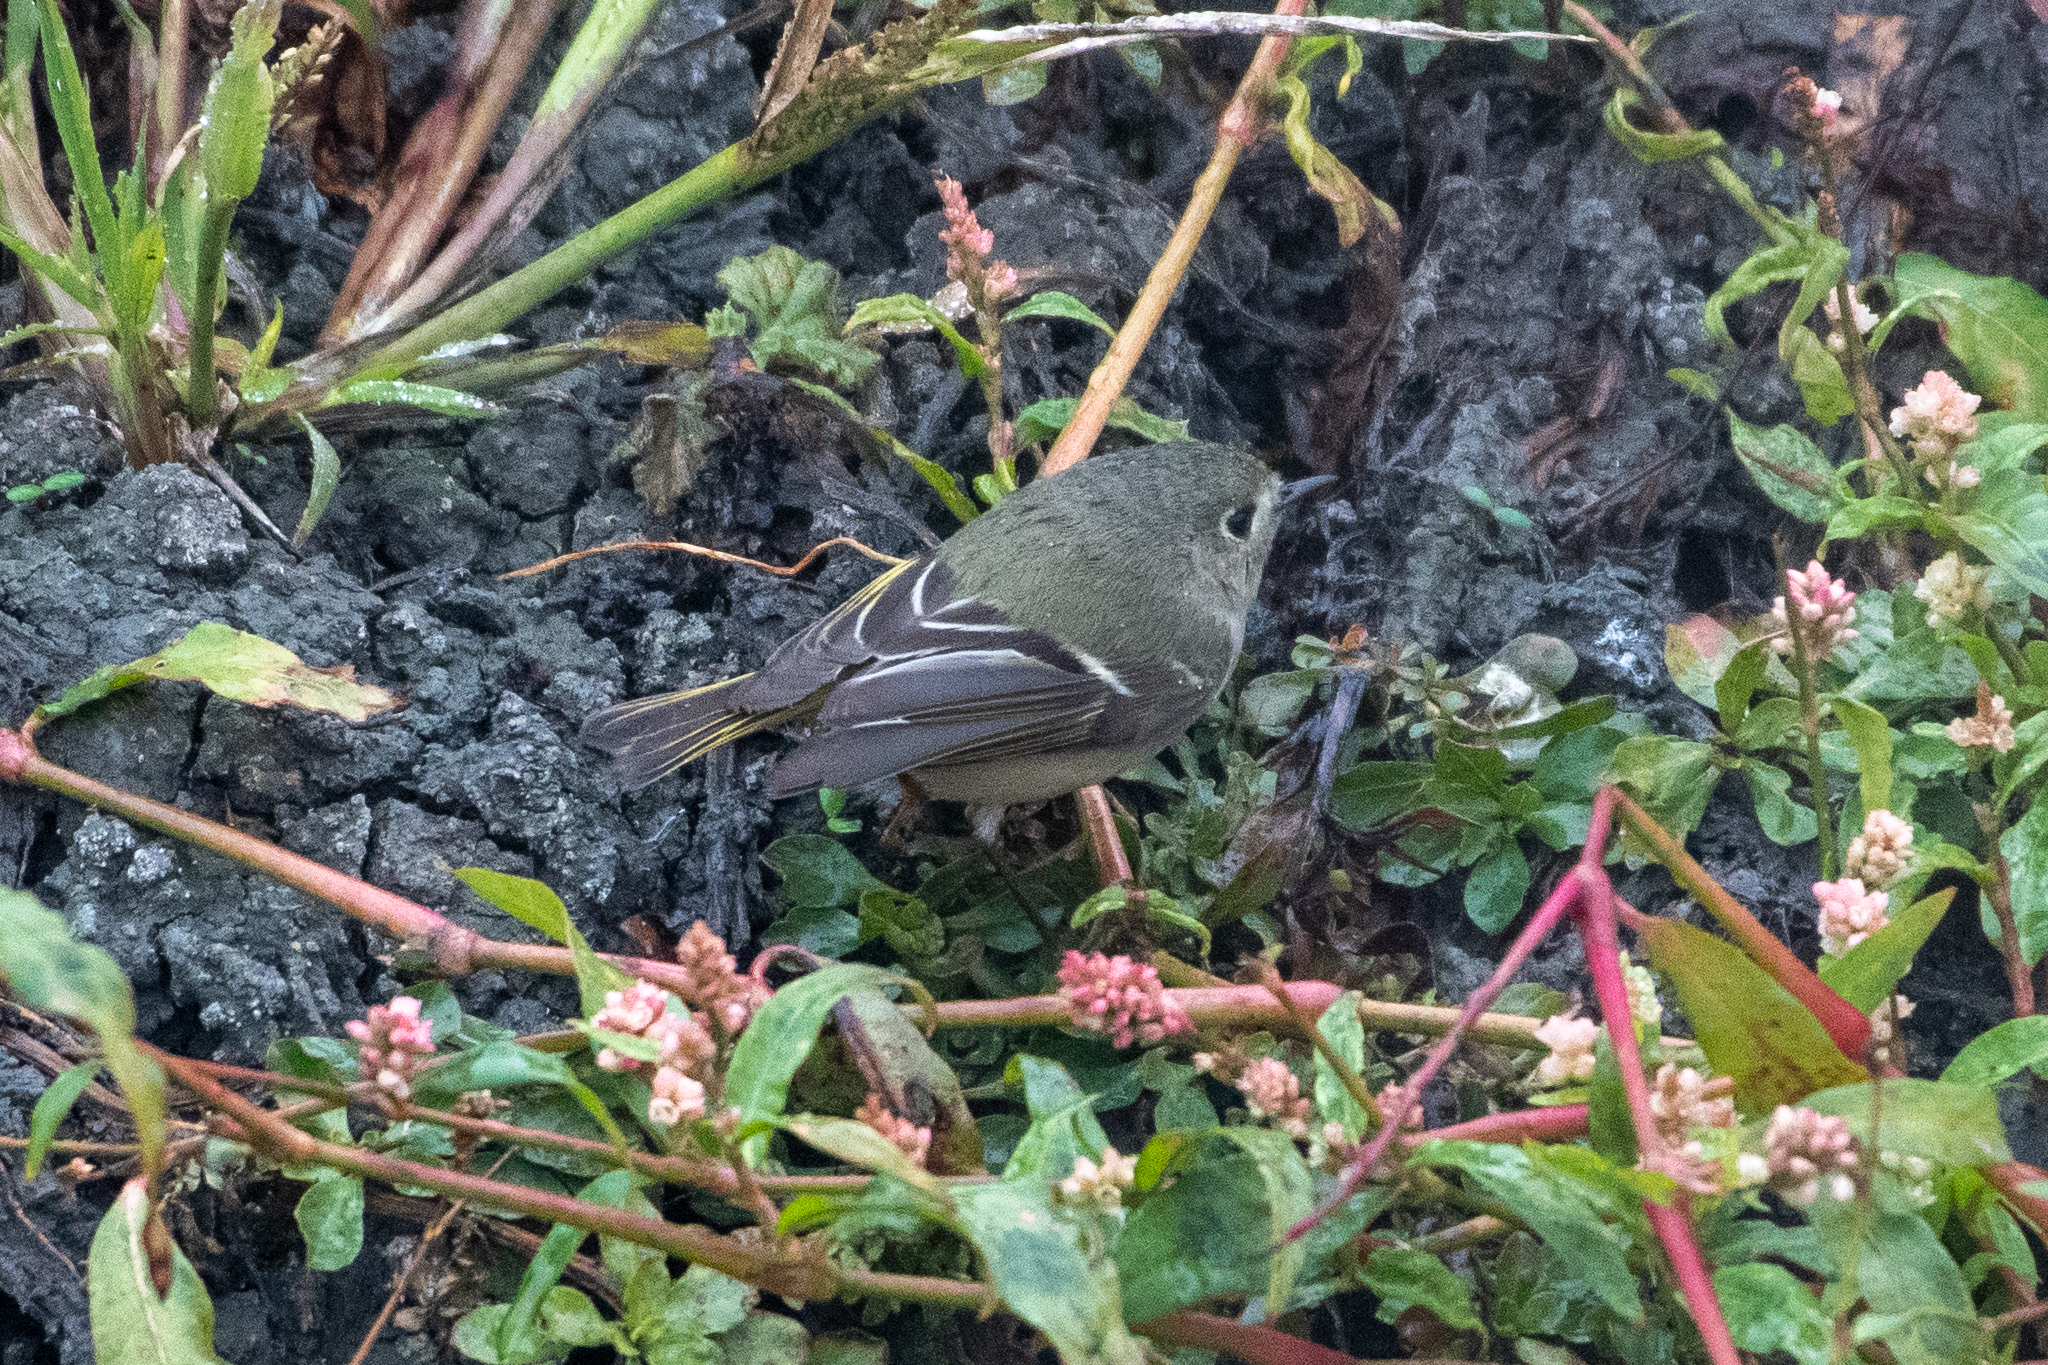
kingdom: Animalia
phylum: Chordata
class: Aves
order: Passeriformes
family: Regulidae
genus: Regulus
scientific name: Regulus calendula
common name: Ruby-crowned kinglet
